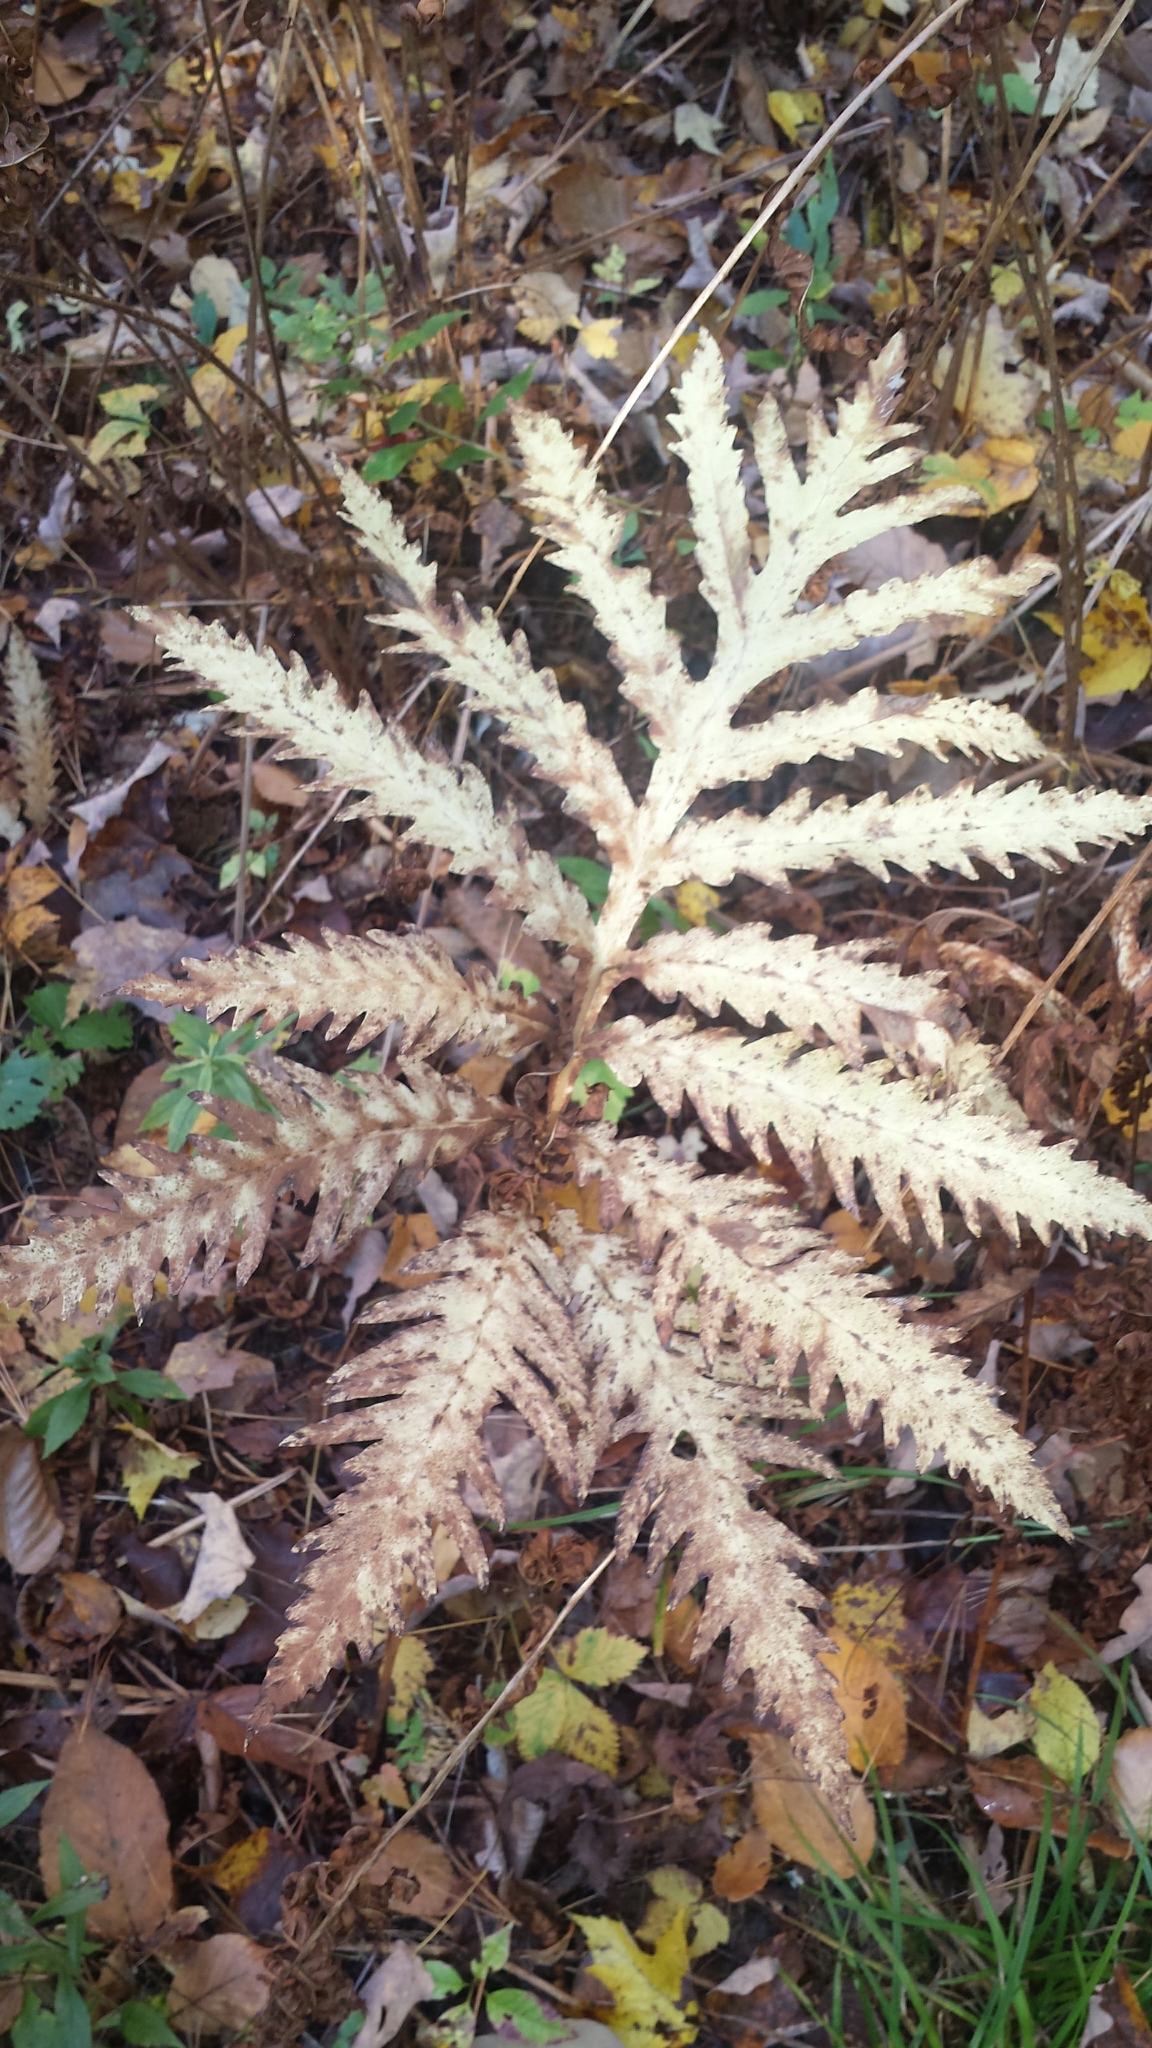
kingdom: Plantae
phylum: Tracheophyta
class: Polypodiopsida
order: Polypodiales
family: Onocleaceae
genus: Onoclea
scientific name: Onoclea sensibilis
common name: Sensitive fern
